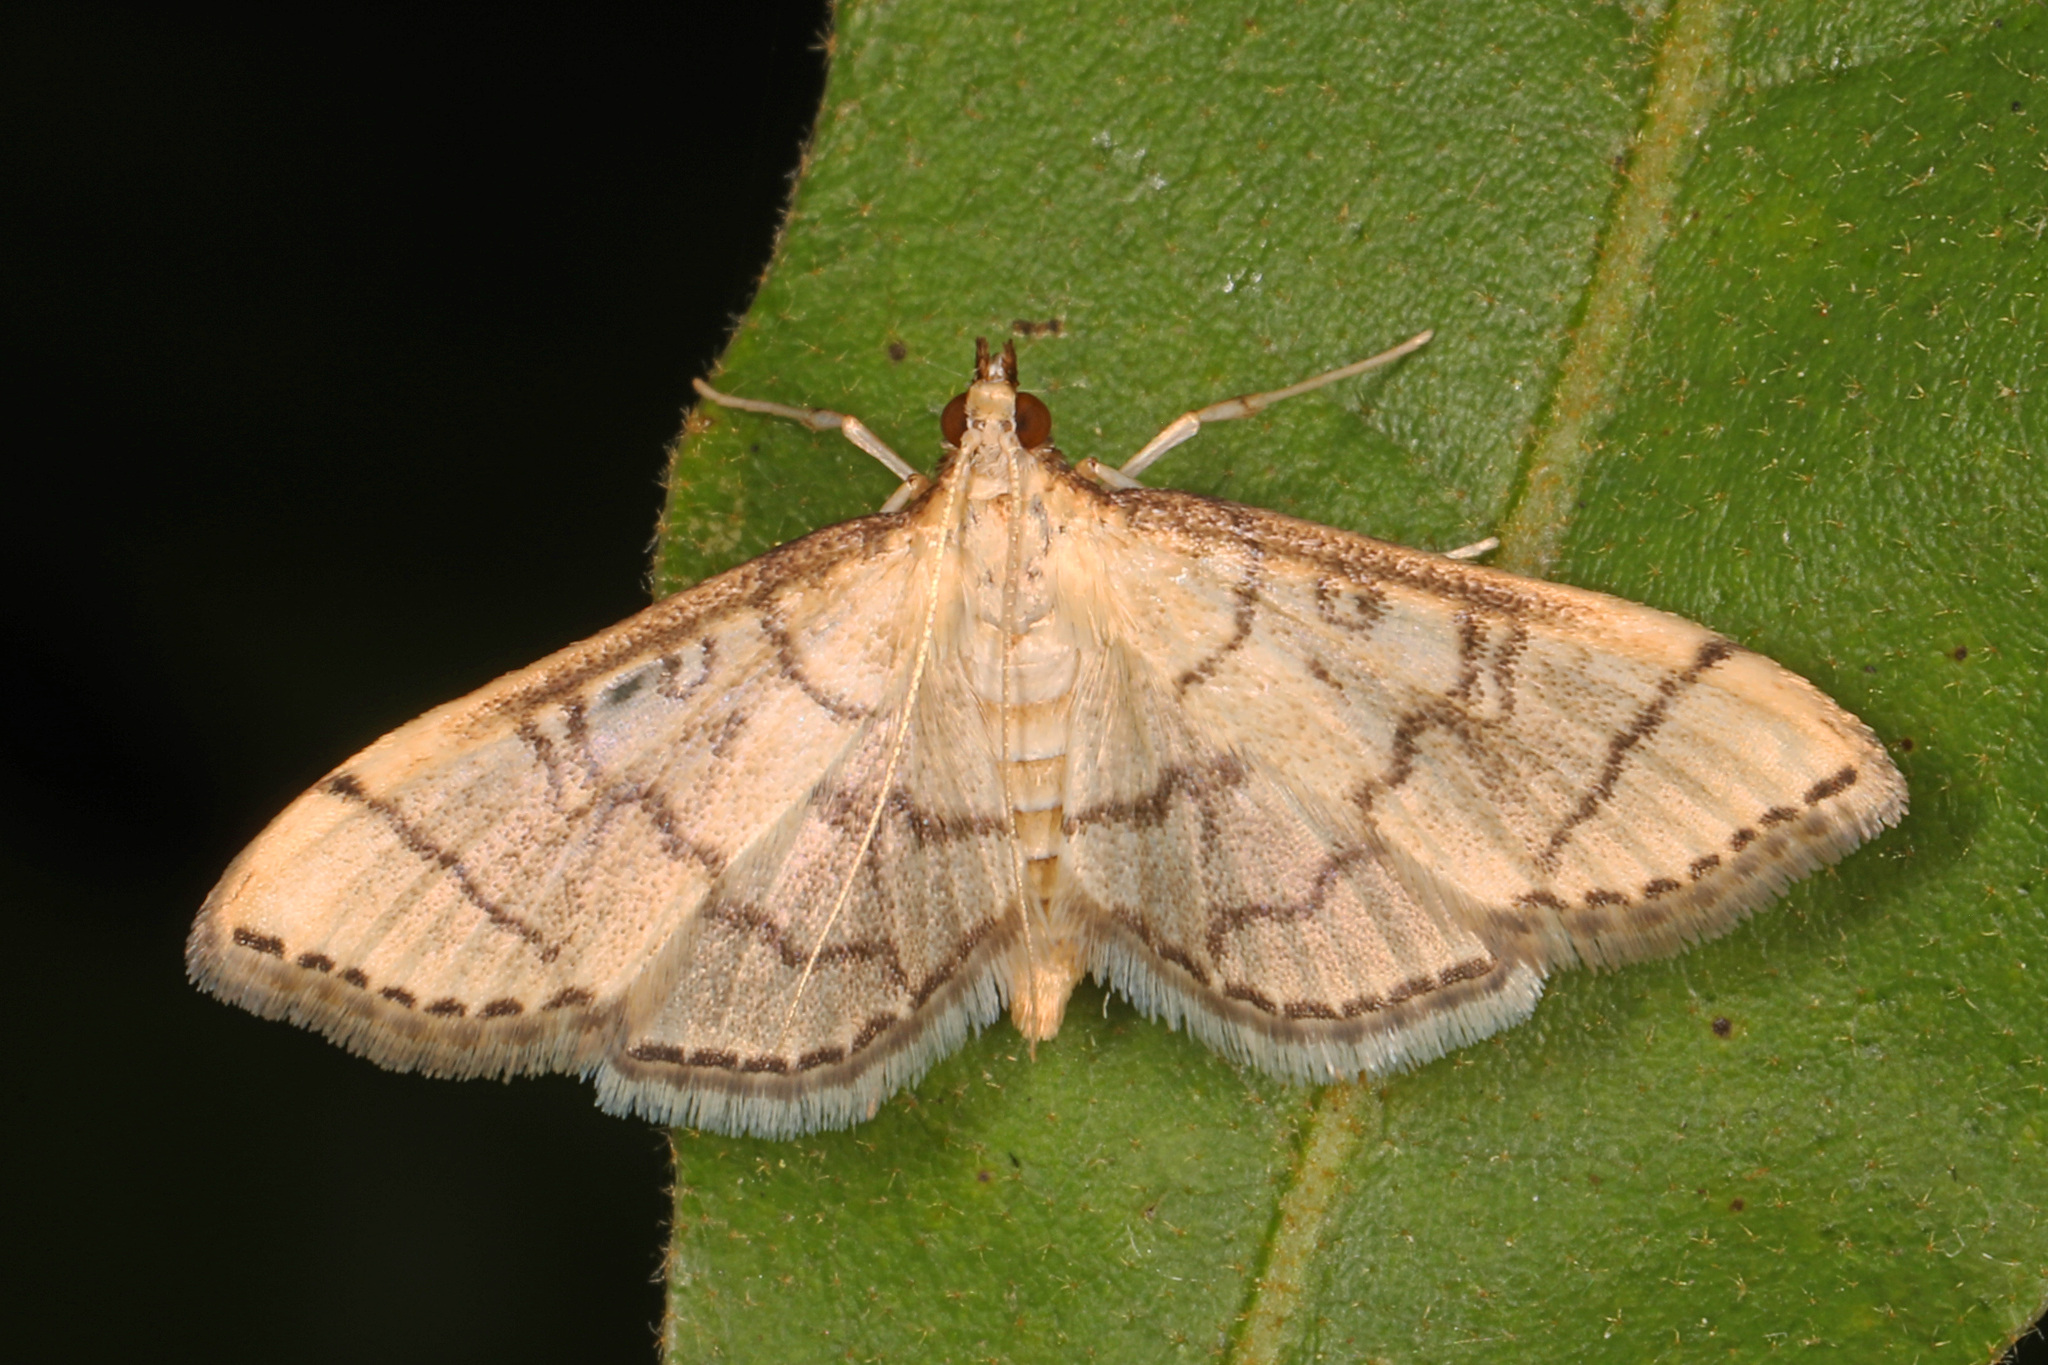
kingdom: Animalia
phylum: Arthropoda
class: Insecta
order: Lepidoptera
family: Crambidae
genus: Lamprosema
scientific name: Lamprosema Blepharomastix ranalis
